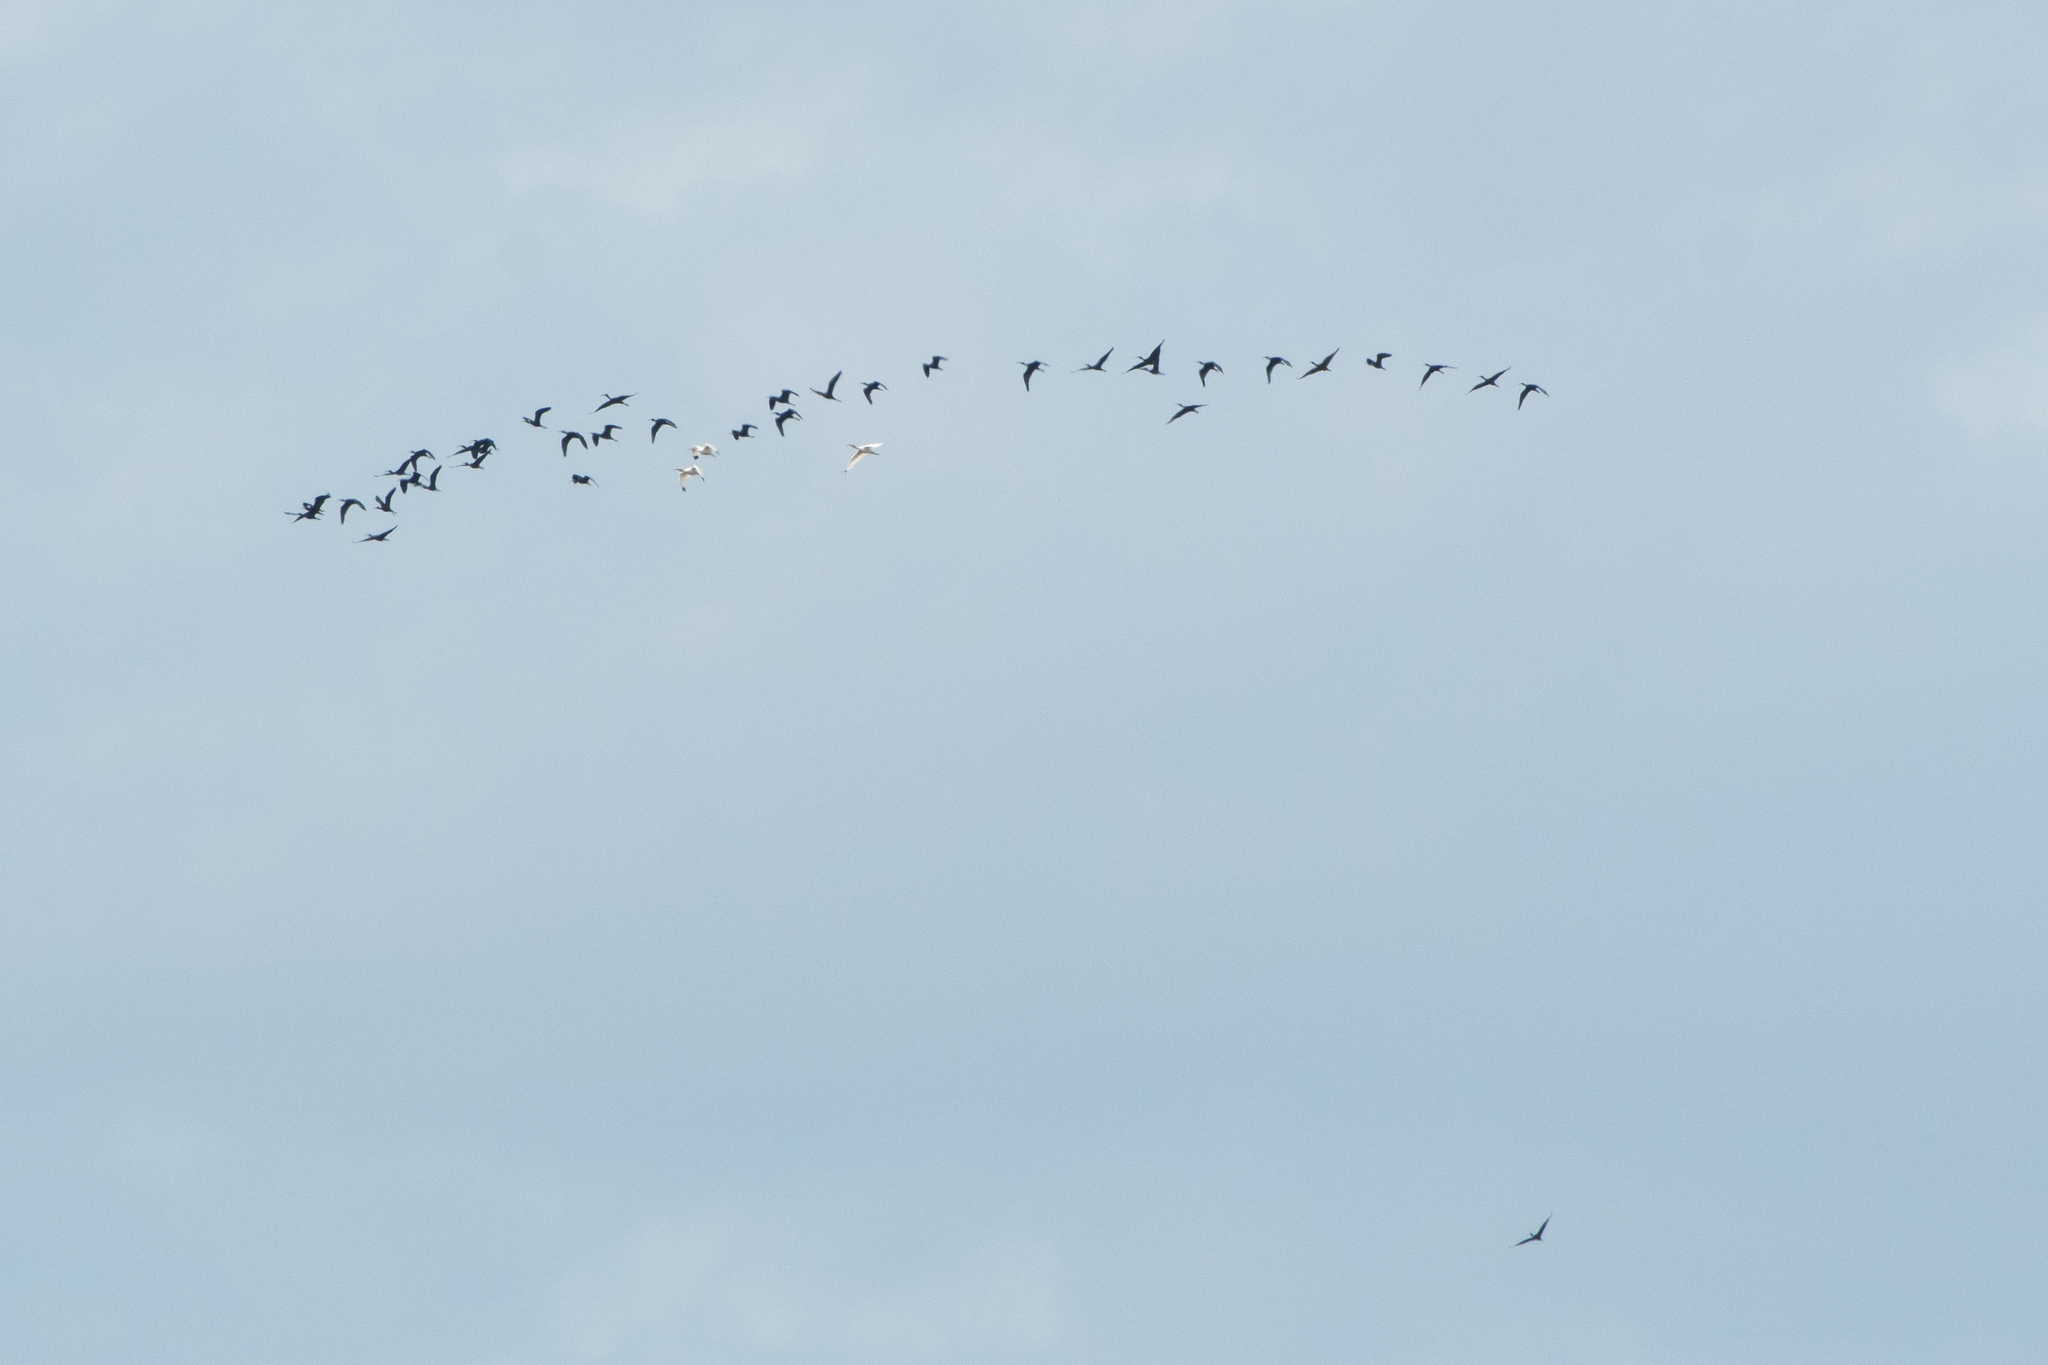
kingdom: Animalia
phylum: Chordata
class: Aves
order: Pelecaniformes
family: Threskiornithidae
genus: Plegadis
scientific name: Plegadis falcinellus
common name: Glossy ibis
